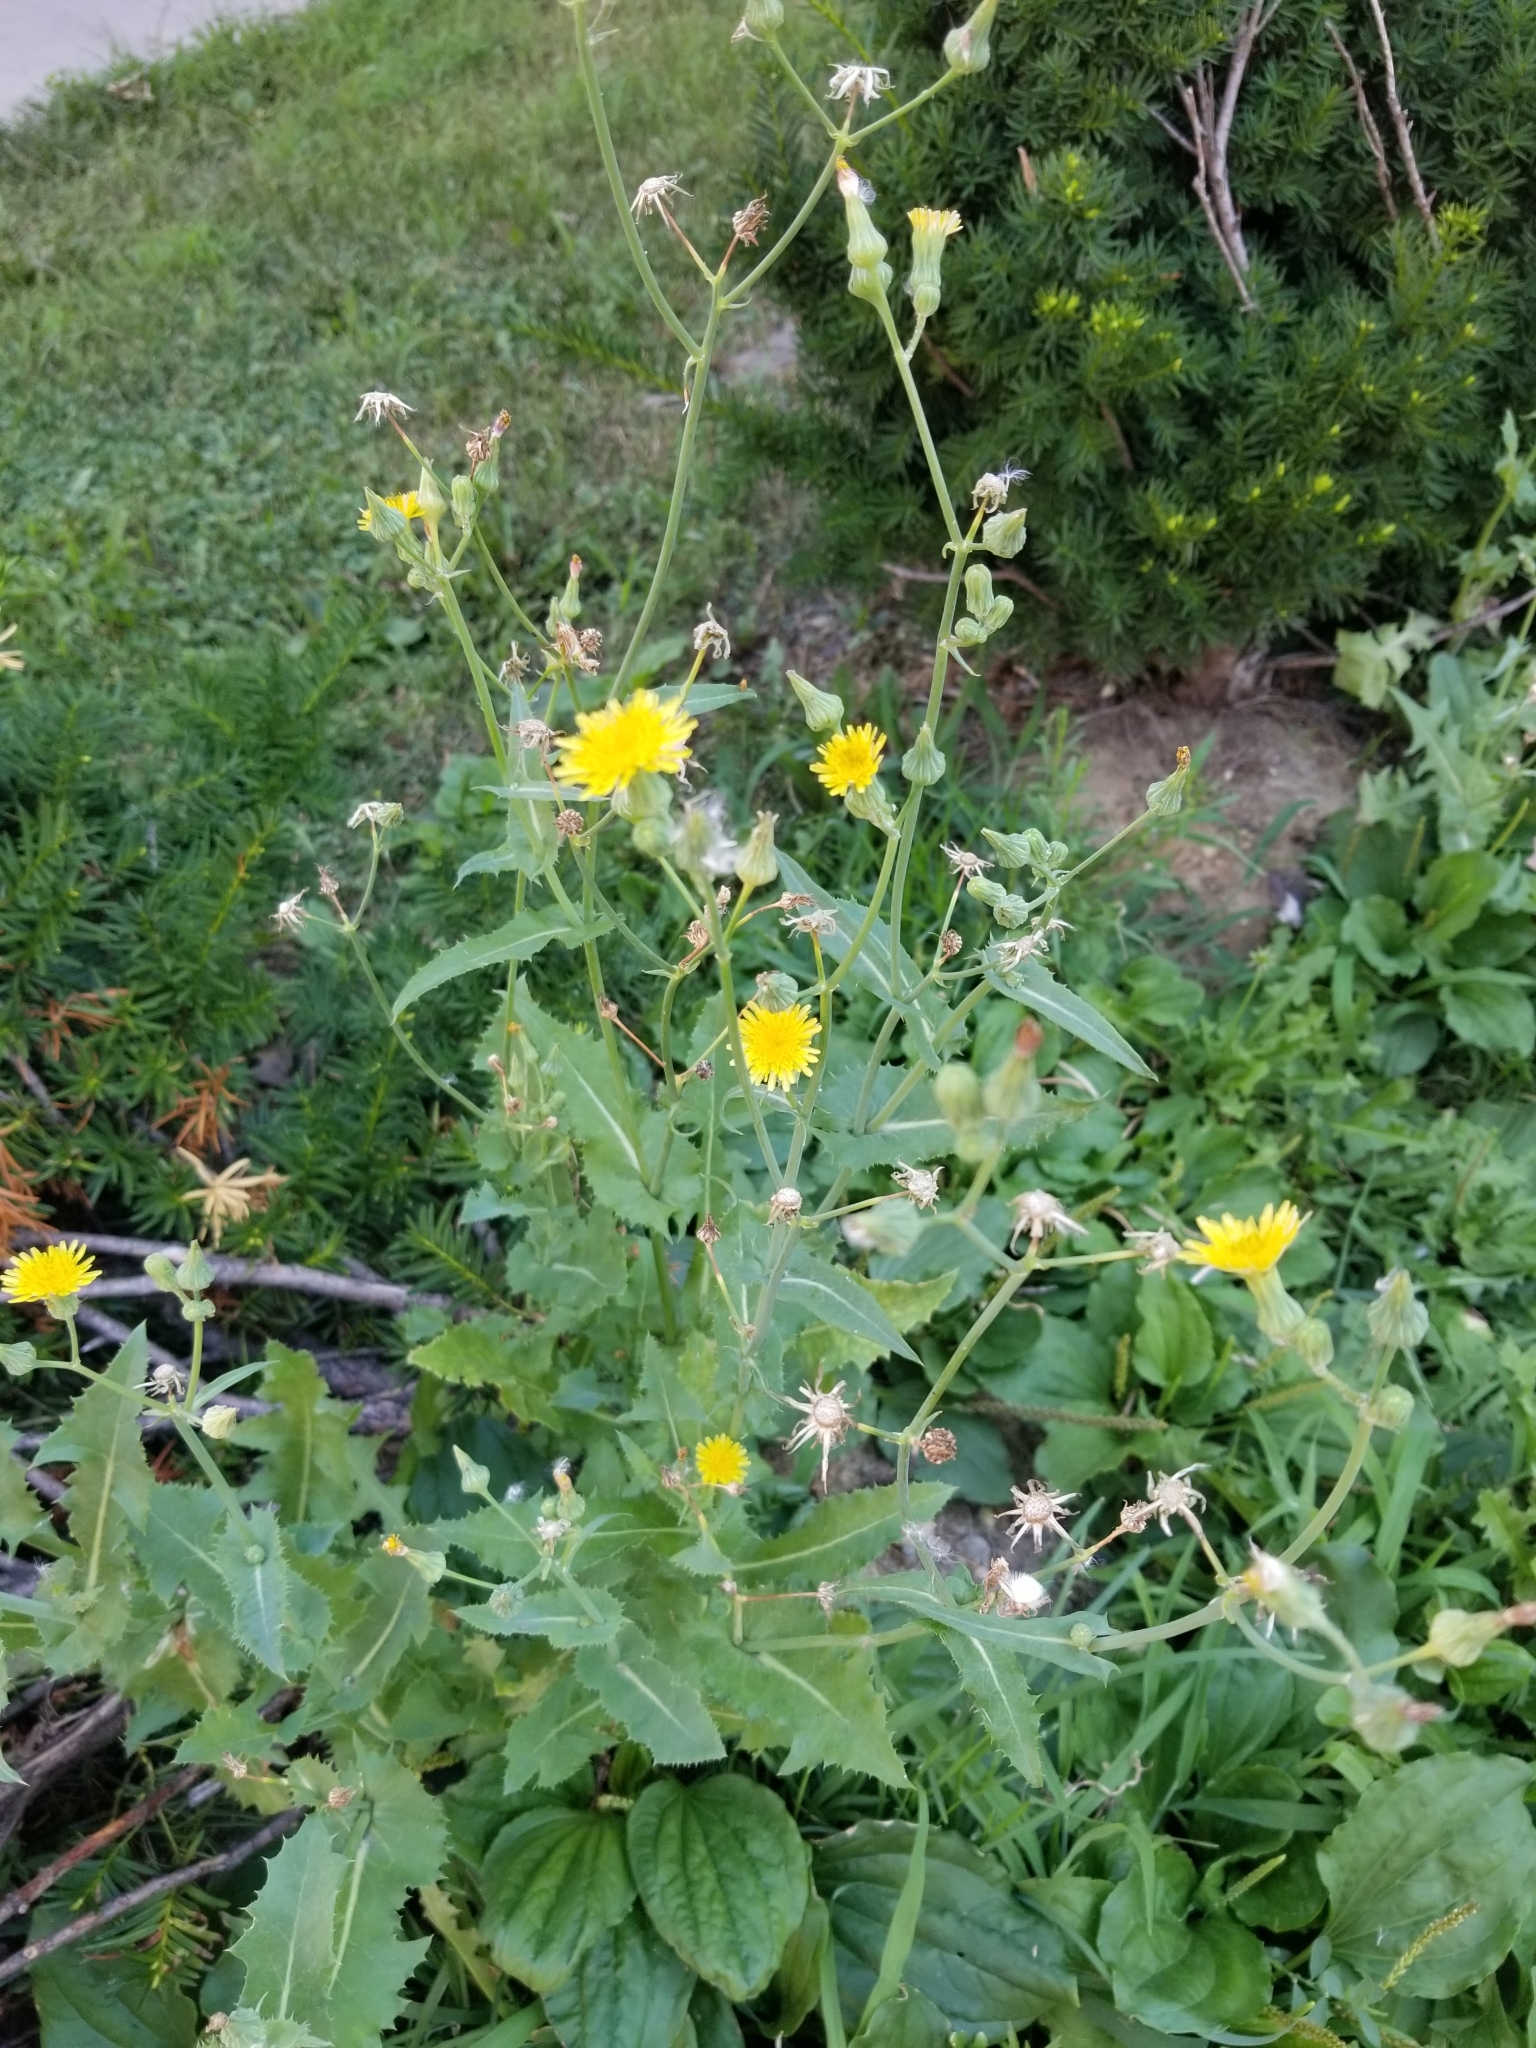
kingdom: Plantae
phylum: Tracheophyta
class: Magnoliopsida
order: Asterales
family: Asteraceae
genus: Sonchus
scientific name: Sonchus oleraceus
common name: Common sowthistle
